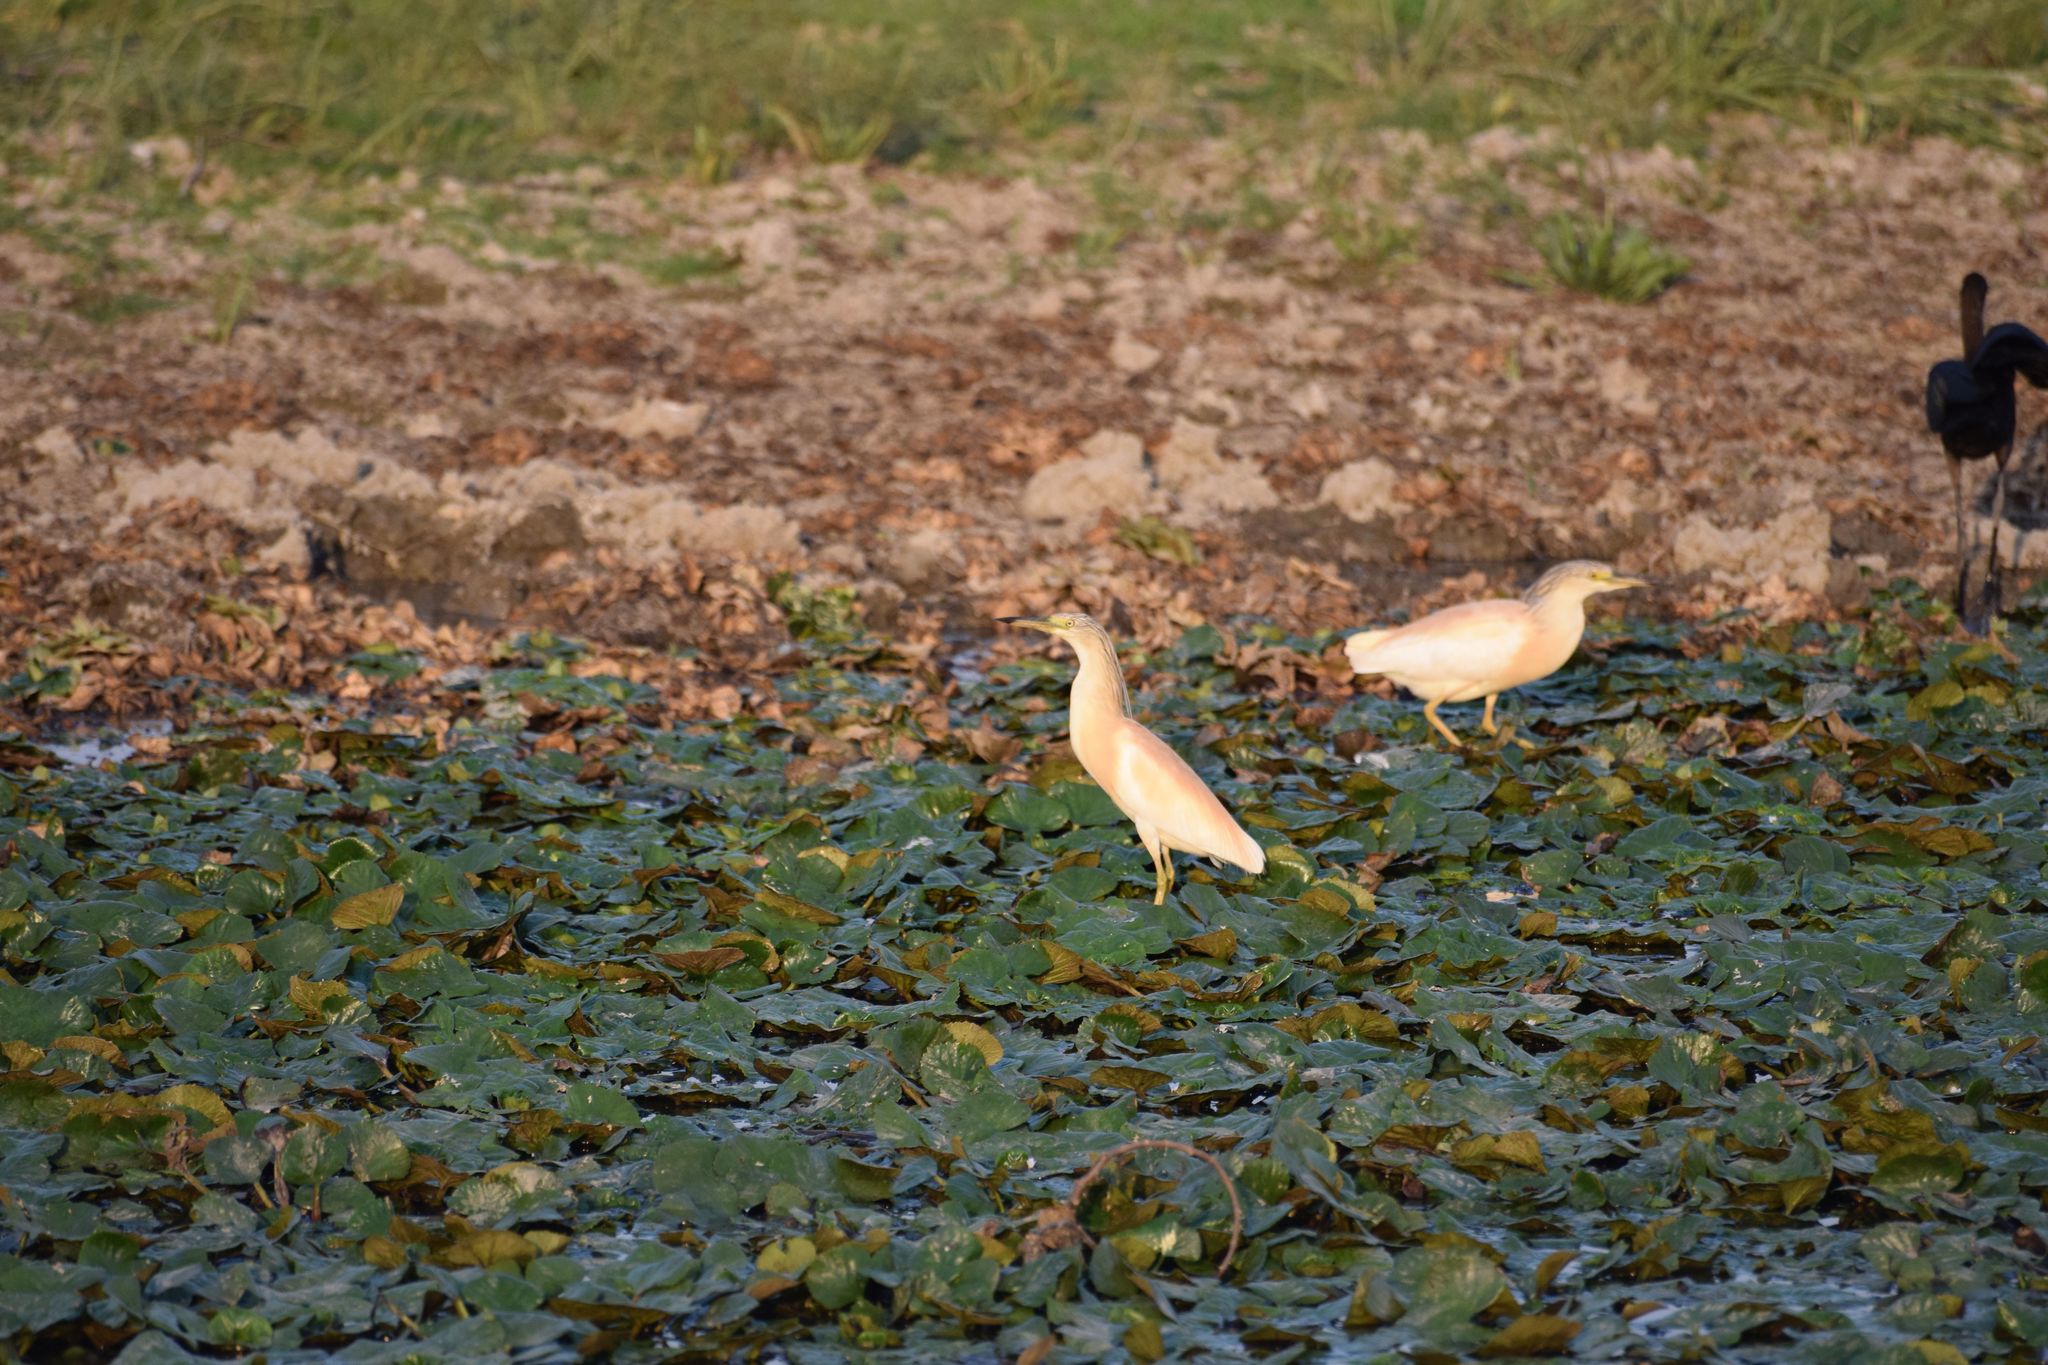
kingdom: Animalia
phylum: Chordata
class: Aves
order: Pelecaniformes
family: Ardeidae
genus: Ardeola
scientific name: Ardeola ralloides
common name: Squacco heron
